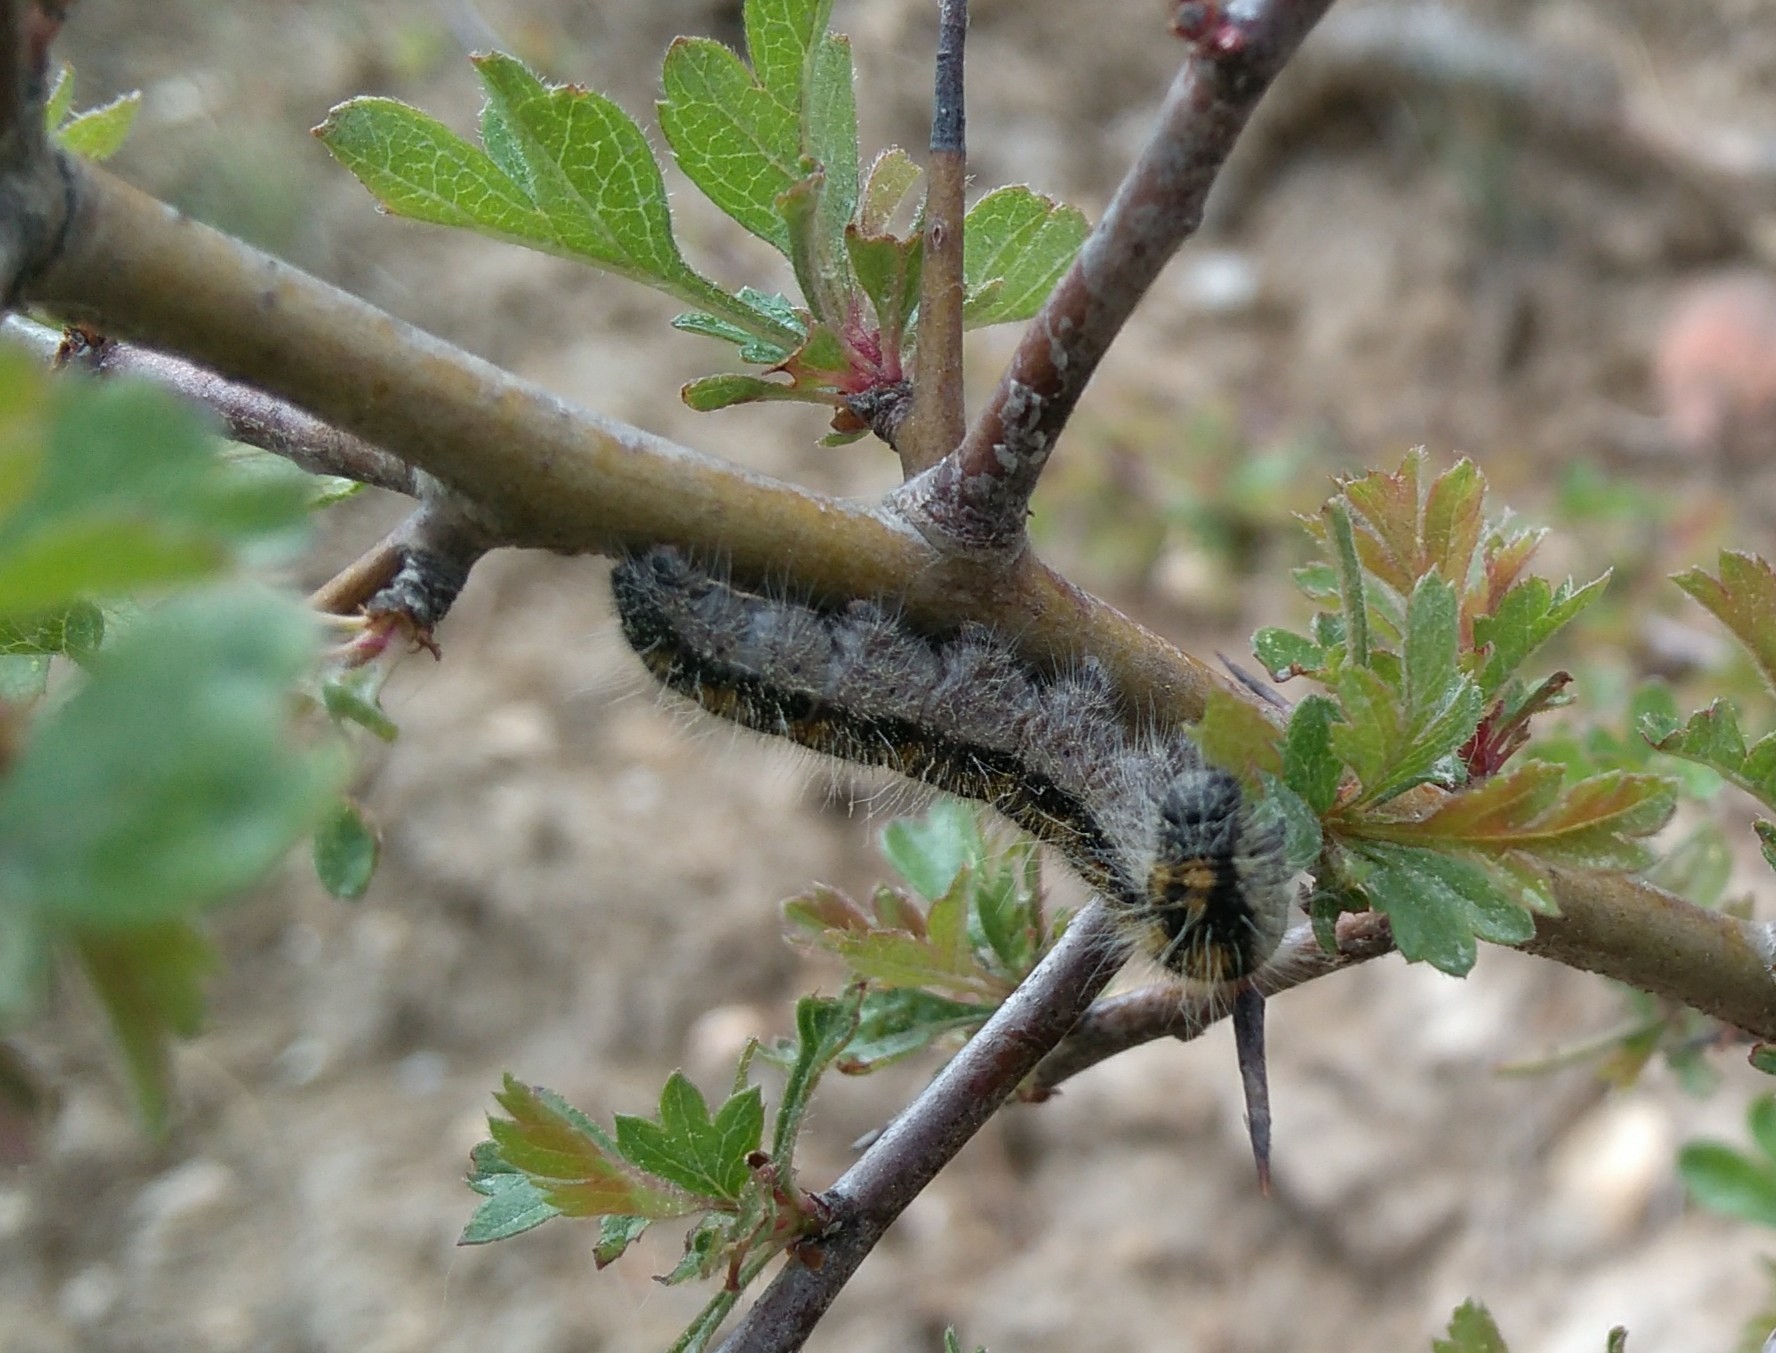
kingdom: Animalia
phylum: Arthropoda
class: Insecta
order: Lepidoptera
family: Pieridae
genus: Aporia
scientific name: Aporia crataegi
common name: Black-veined white
